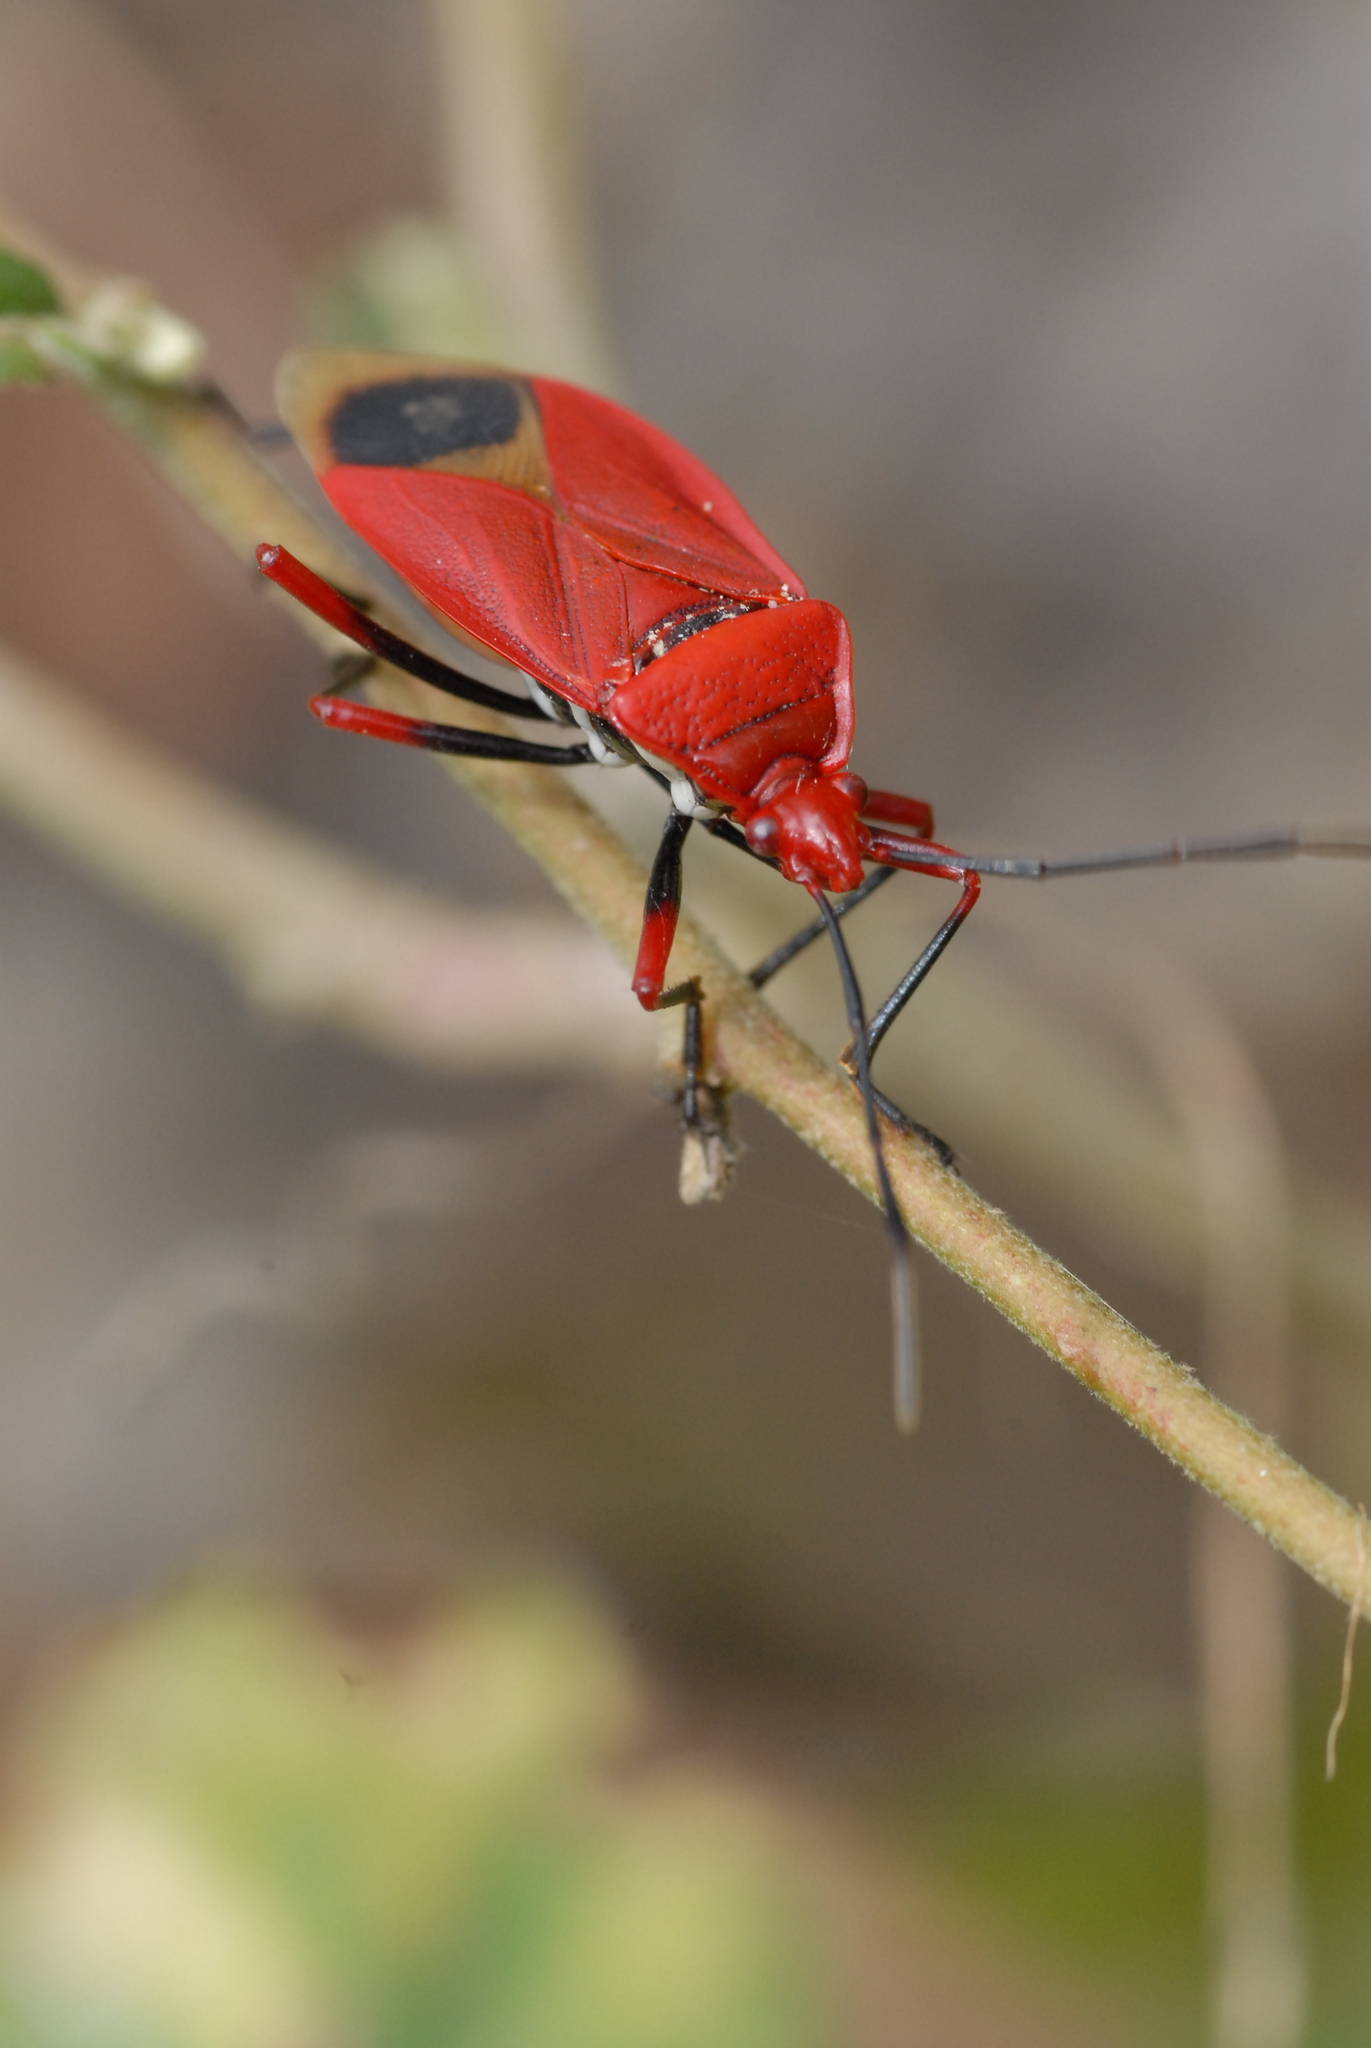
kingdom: Animalia
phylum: Arthropoda
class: Insecta
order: Hemiptera
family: Pyrrhocoridae
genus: Dindymus
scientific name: Dindymus brevis
